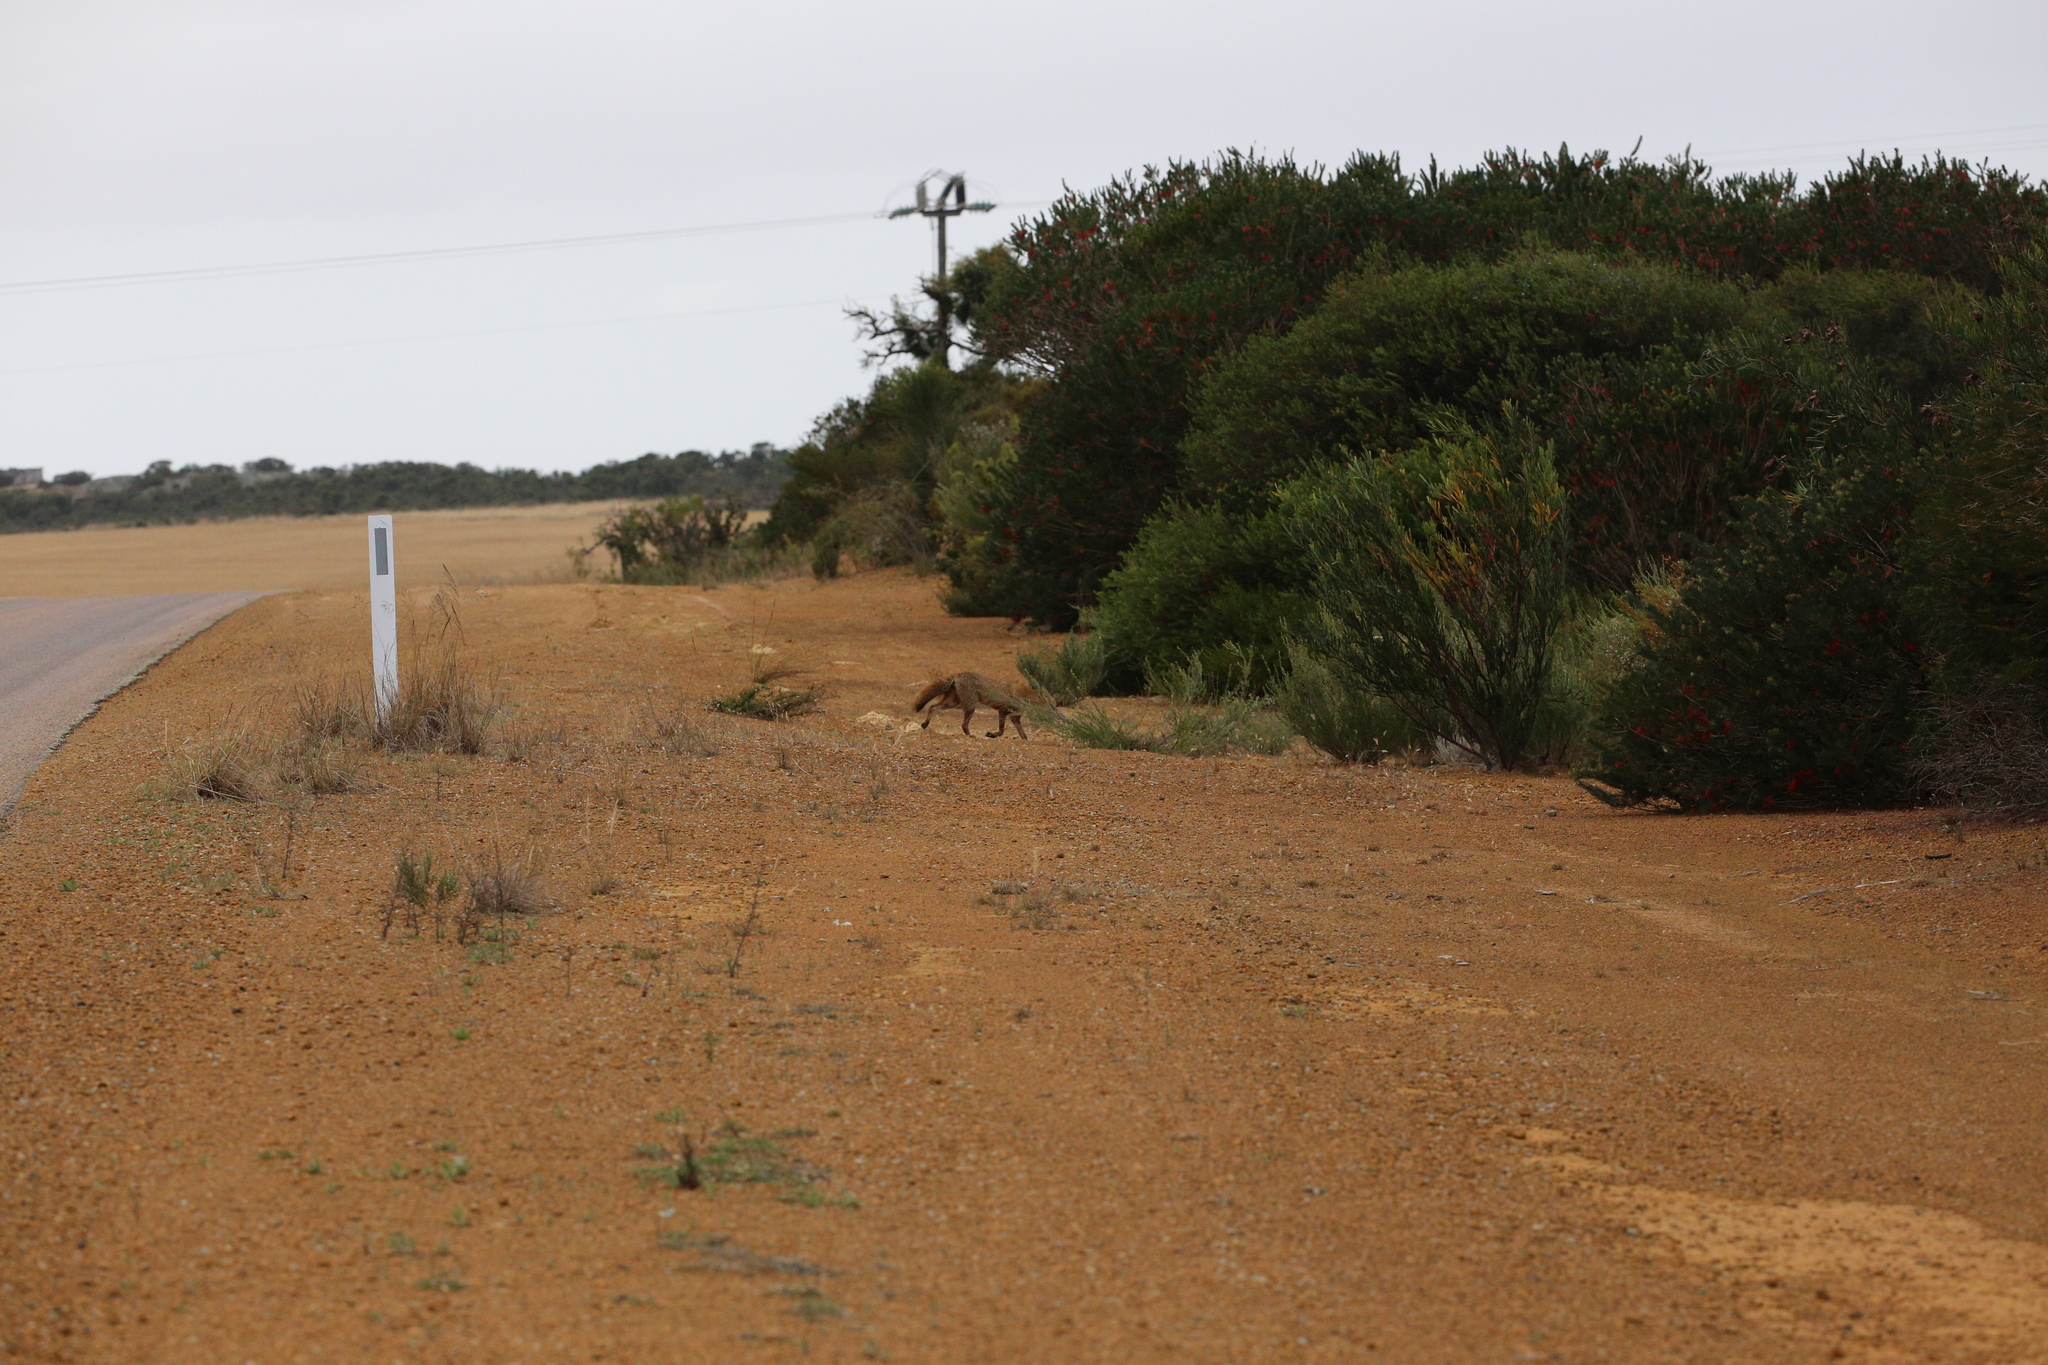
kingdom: Animalia
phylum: Chordata
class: Mammalia
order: Carnivora
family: Canidae
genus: Vulpes
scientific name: Vulpes vulpes
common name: Red fox
